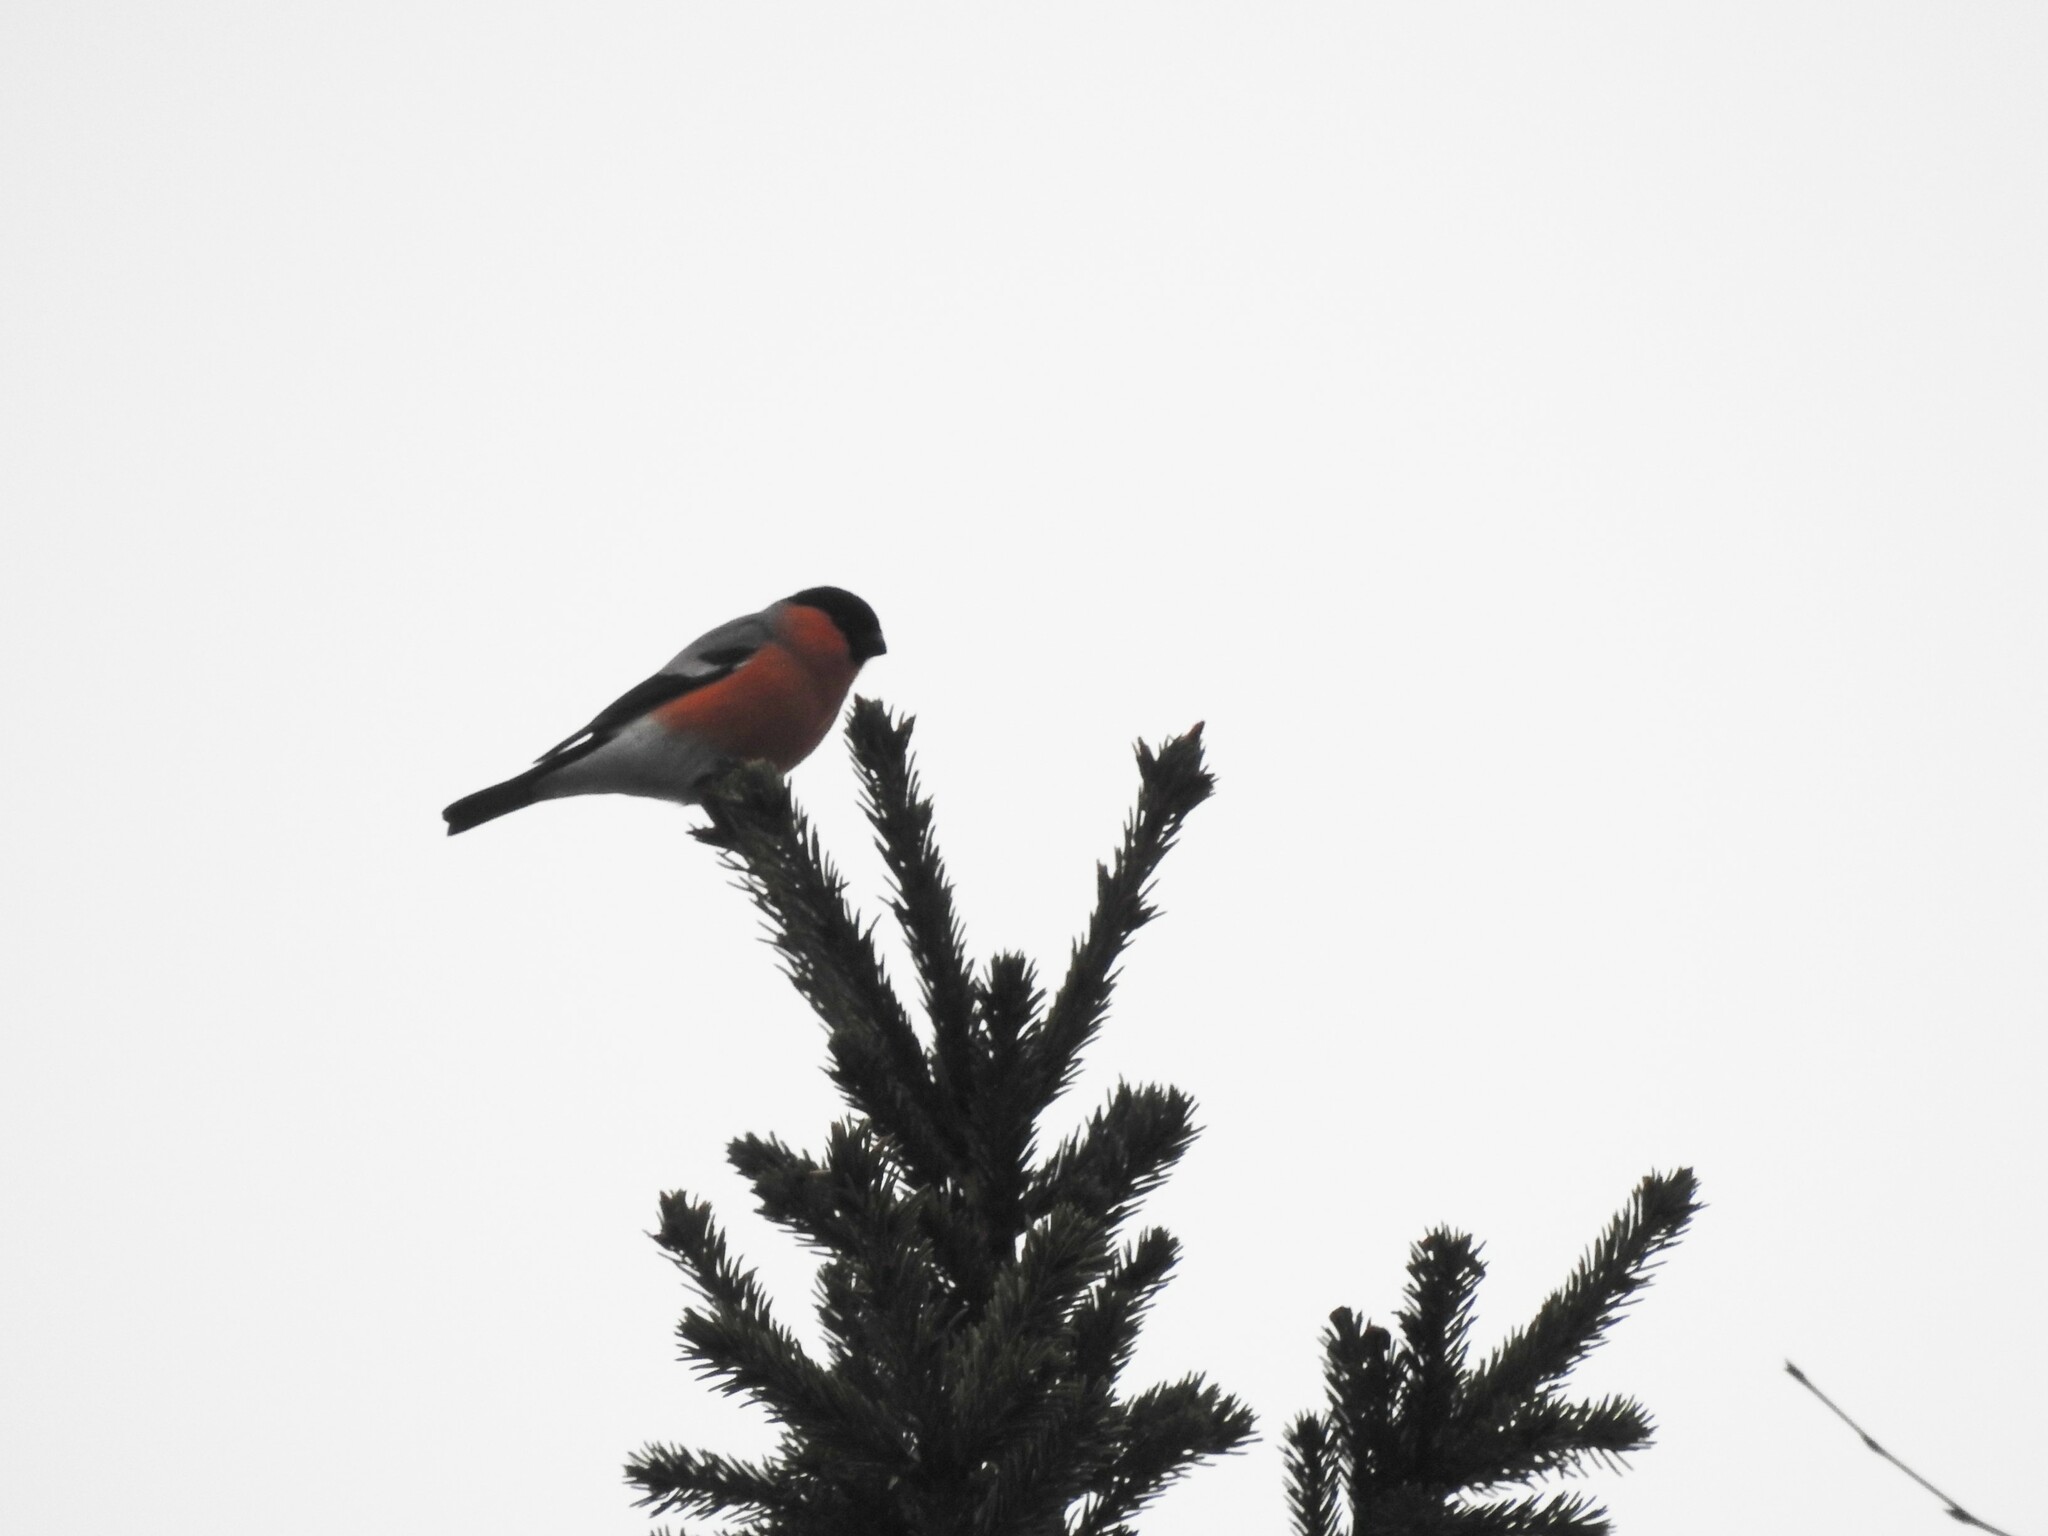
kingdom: Animalia
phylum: Chordata
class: Aves
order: Passeriformes
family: Fringillidae
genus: Pyrrhula
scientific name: Pyrrhula pyrrhula
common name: Eurasian bullfinch
